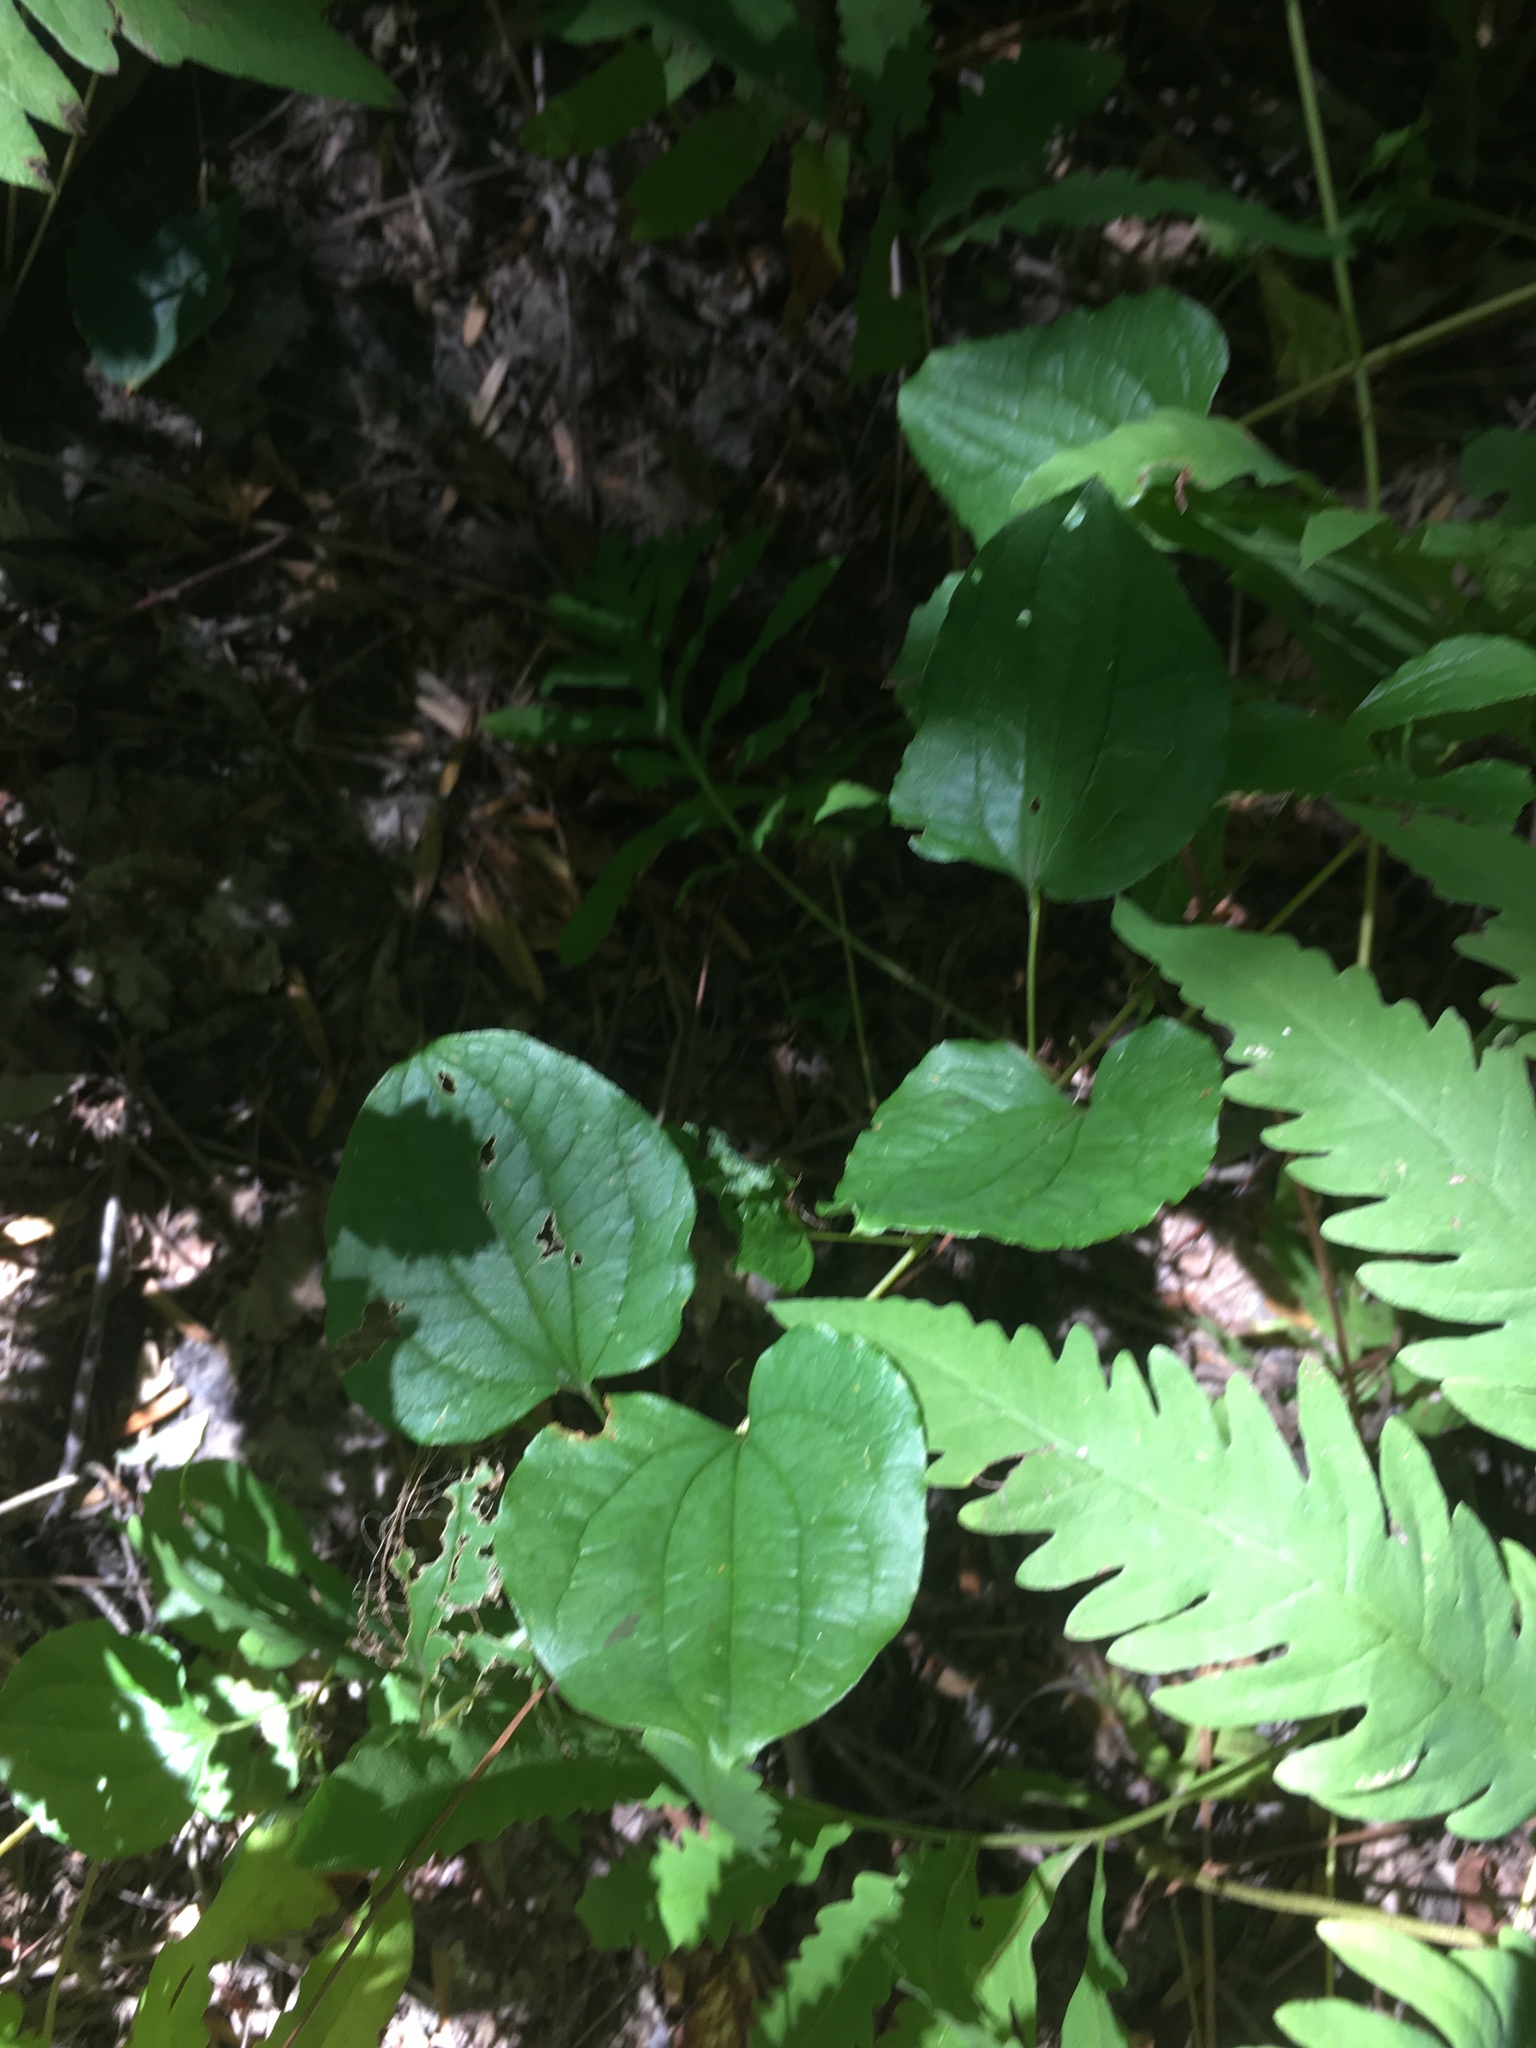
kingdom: Plantae
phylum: Tracheophyta
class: Liliopsida
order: Liliales
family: Smilacaceae
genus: Smilax
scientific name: Smilax herbacea
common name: Jacob's-ladder
